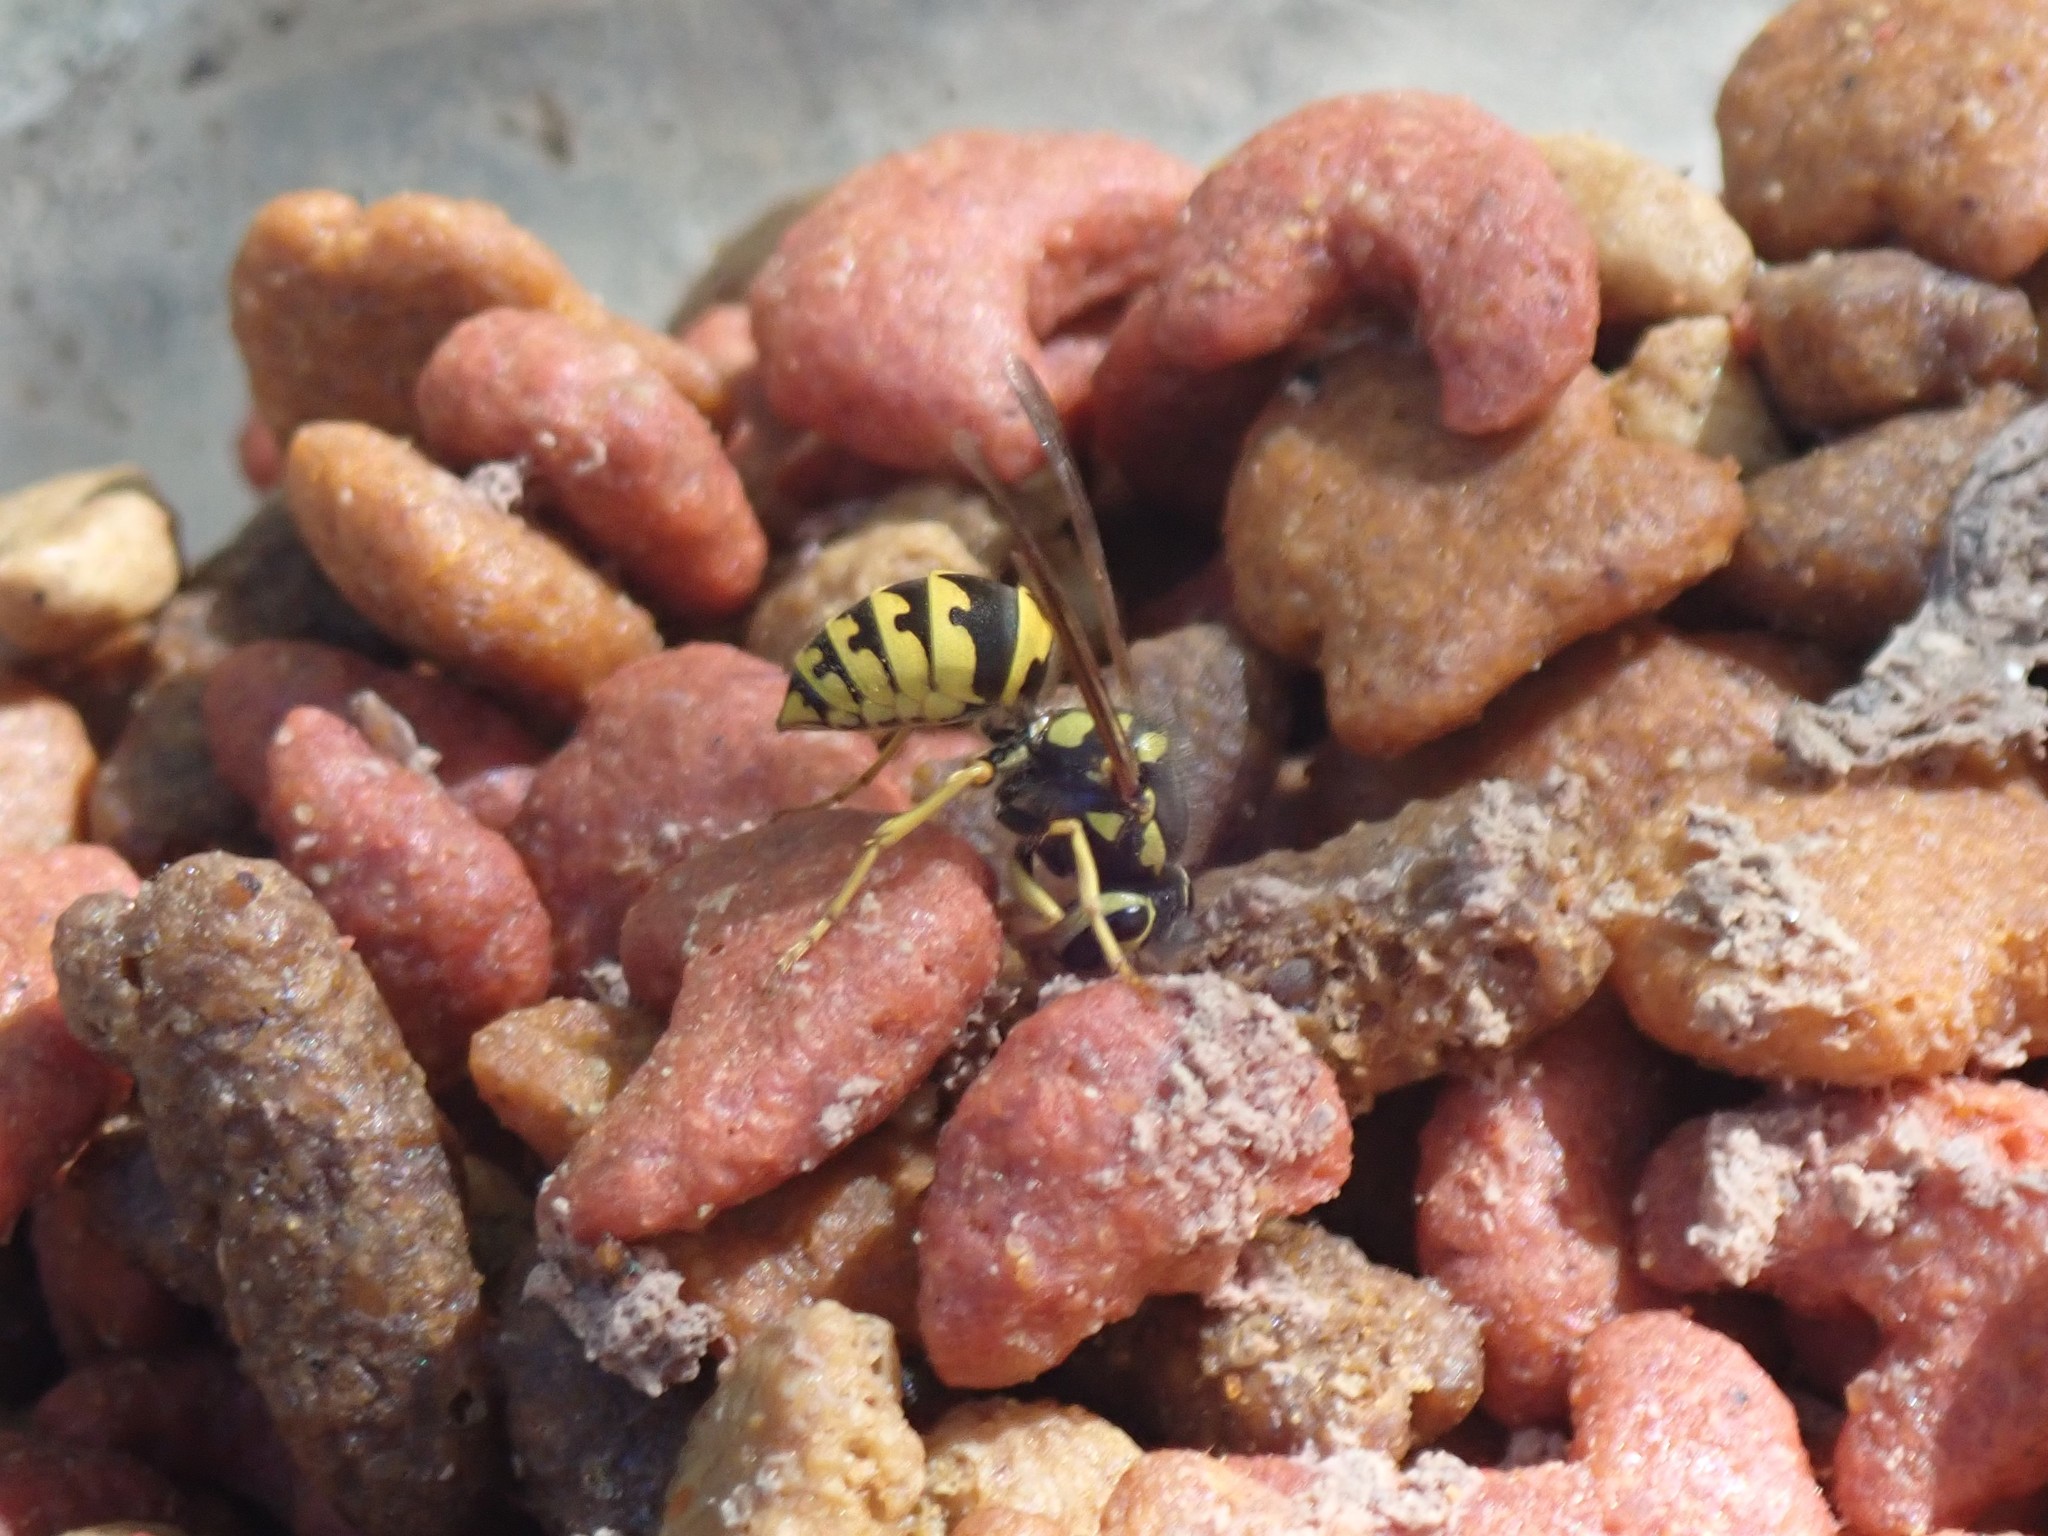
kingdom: Animalia
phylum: Arthropoda
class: Insecta
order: Hymenoptera
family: Vespidae
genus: Vespula
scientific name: Vespula pensylvanica
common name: Western yellowjacket
